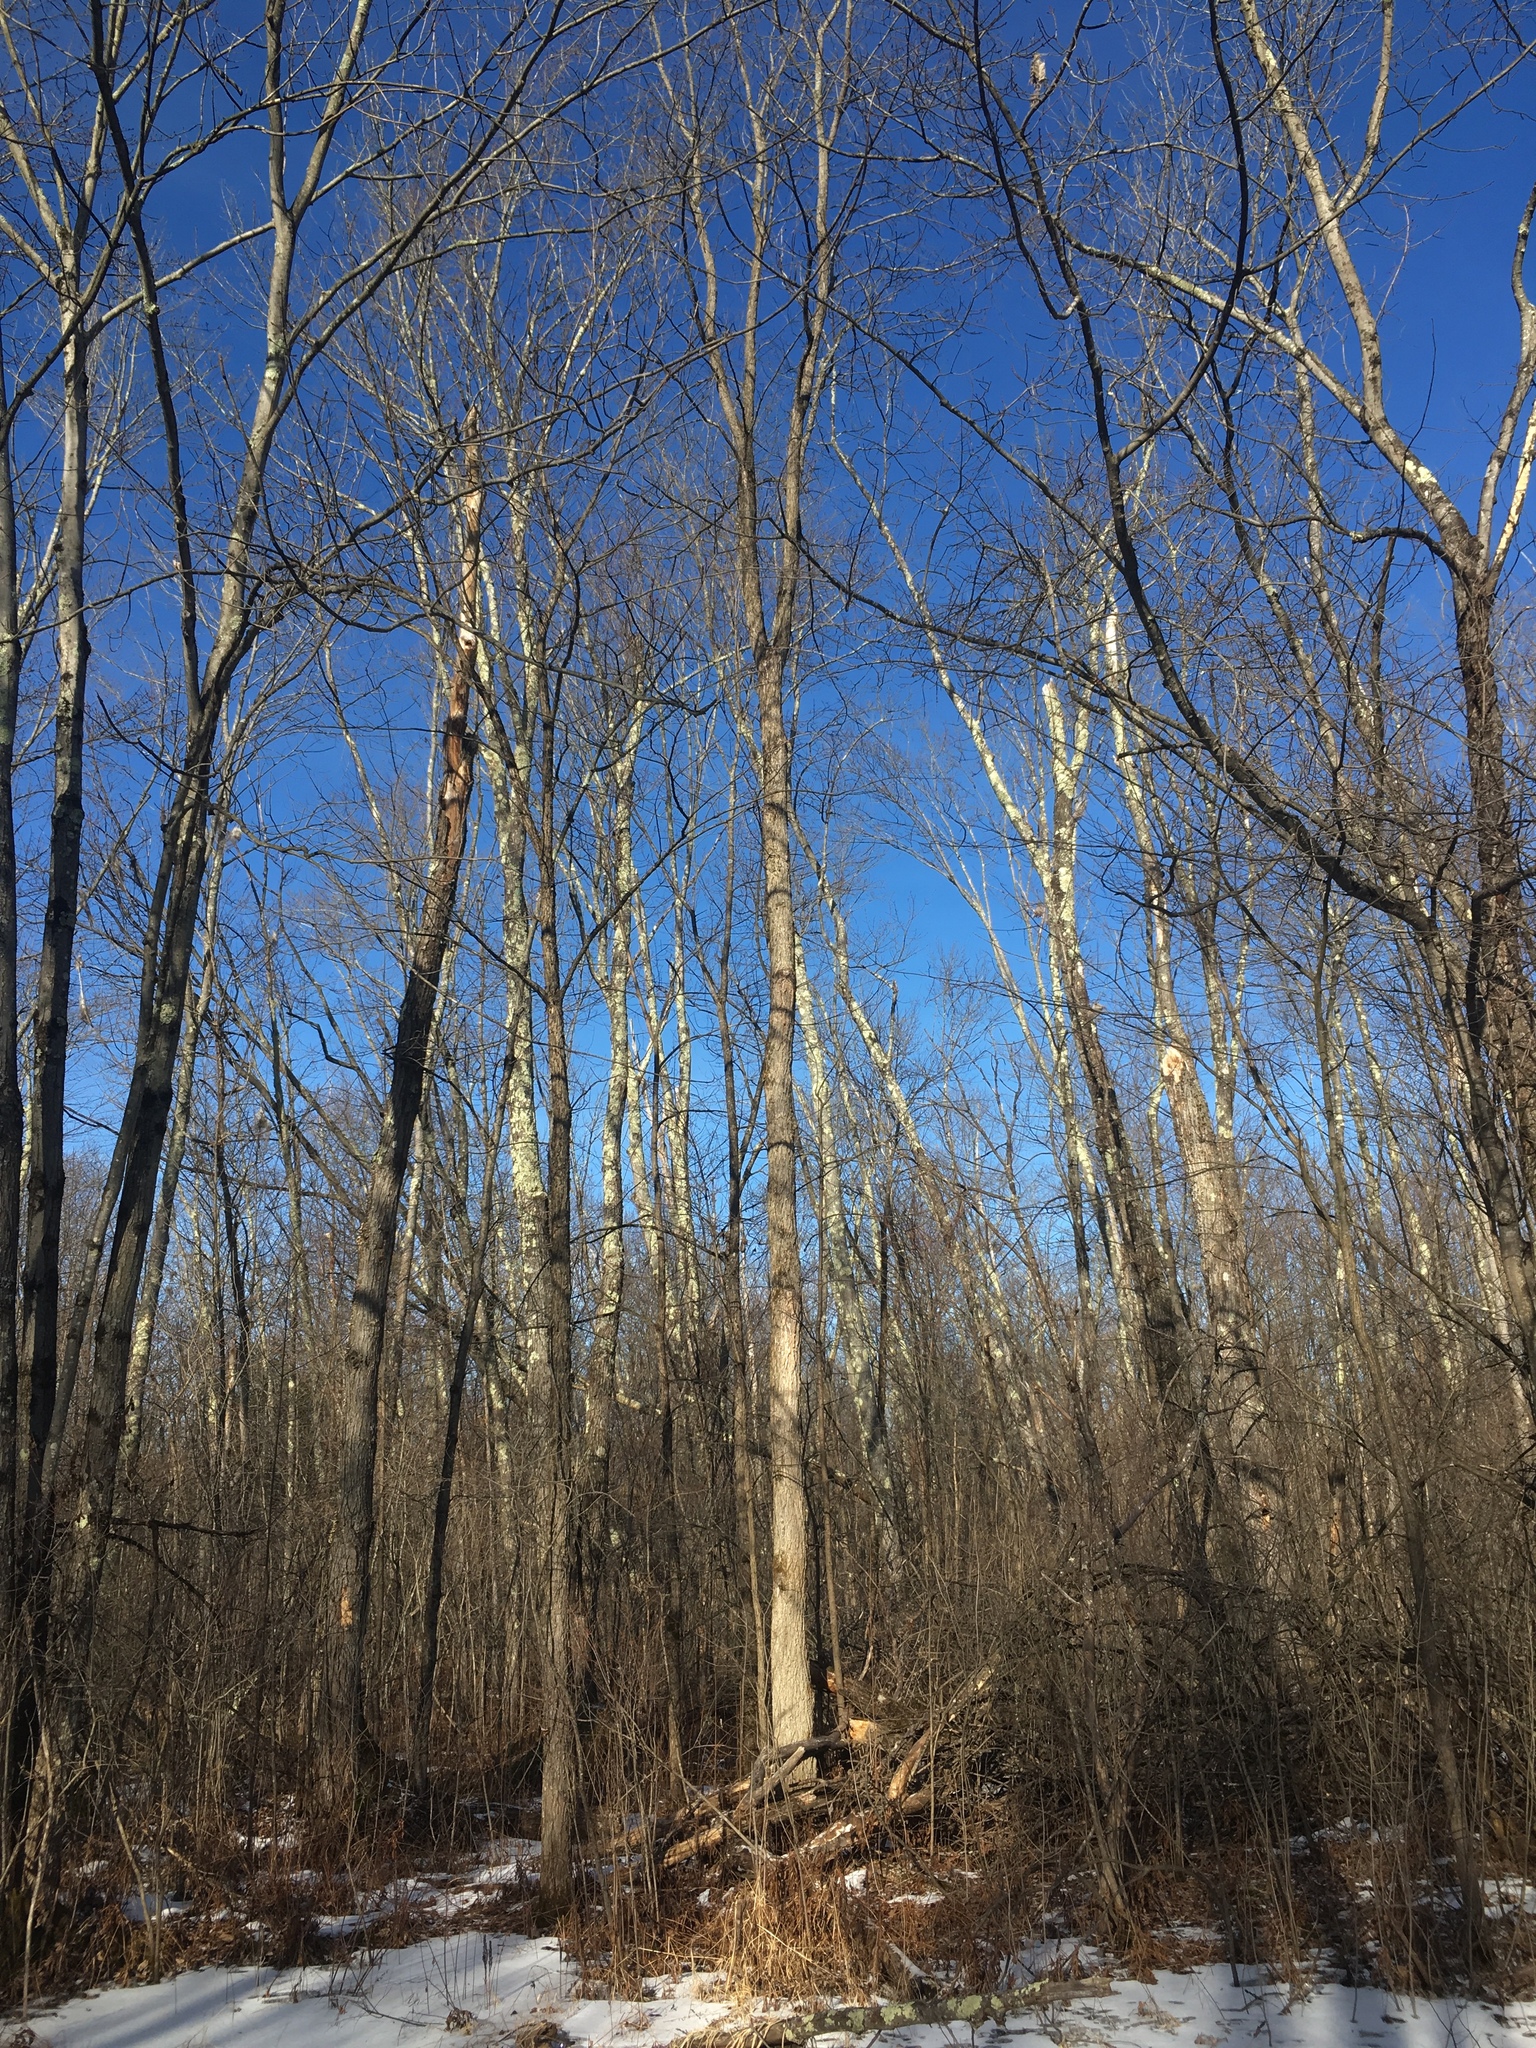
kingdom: Plantae
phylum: Tracheophyta
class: Magnoliopsida
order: Rosales
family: Ulmaceae
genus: Ulmus
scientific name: Ulmus americana
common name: American elm
